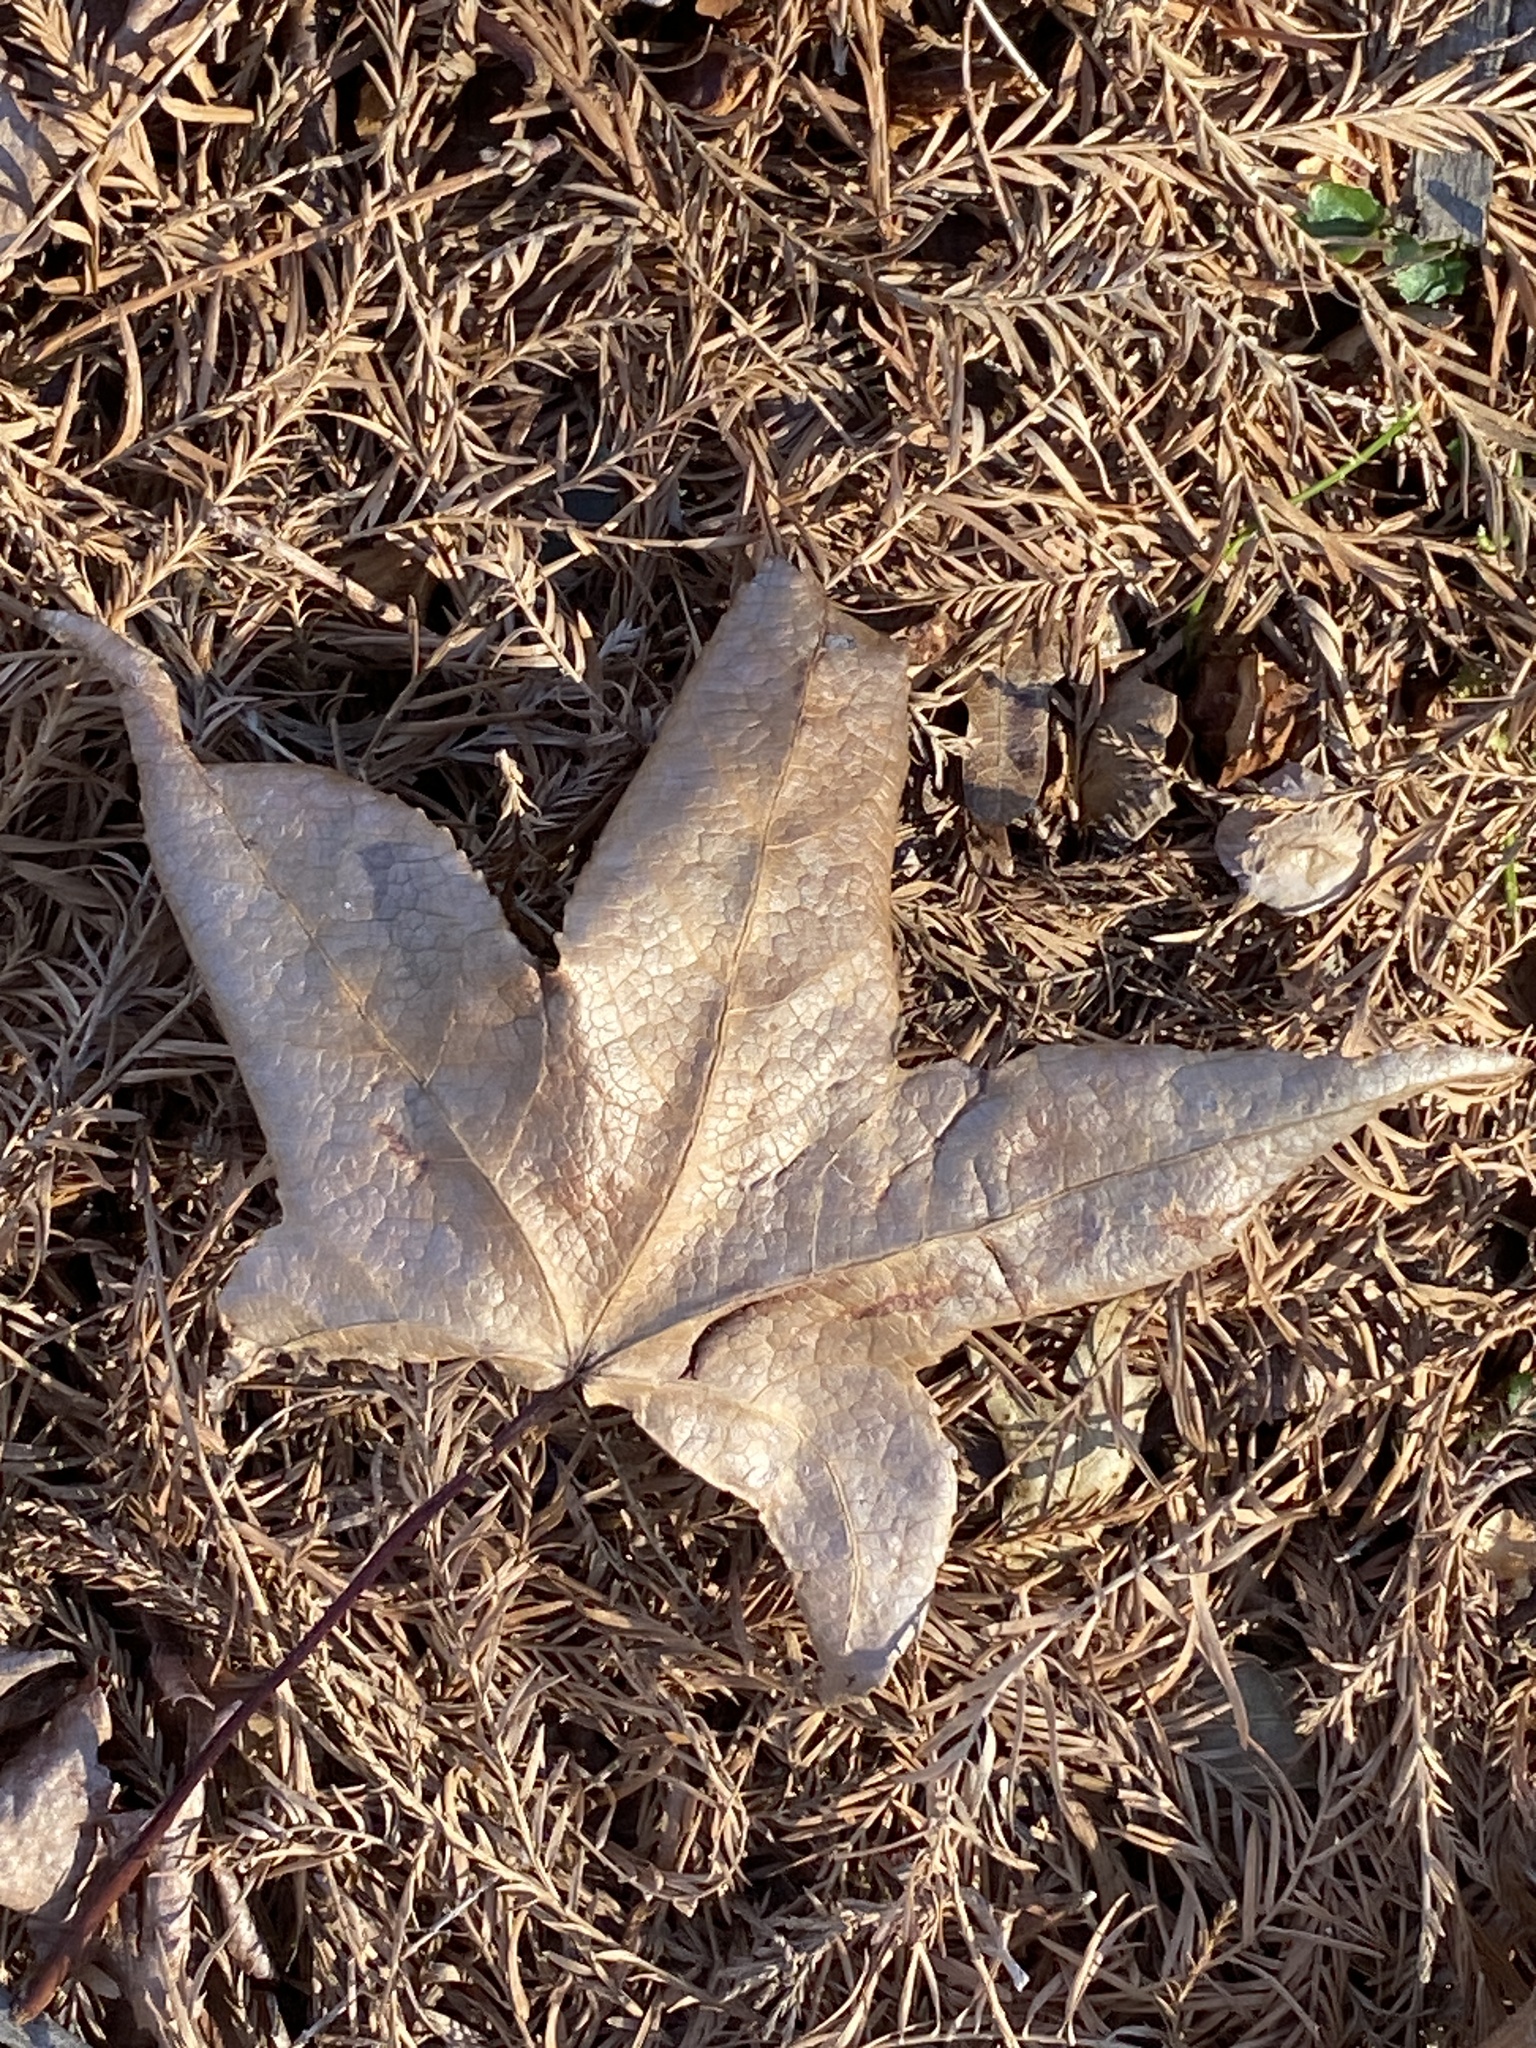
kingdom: Plantae
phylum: Tracheophyta
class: Magnoliopsida
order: Saxifragales
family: Altingiaceae
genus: Liquidambar
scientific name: Liquidambar styraciflua
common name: Sweet gum
